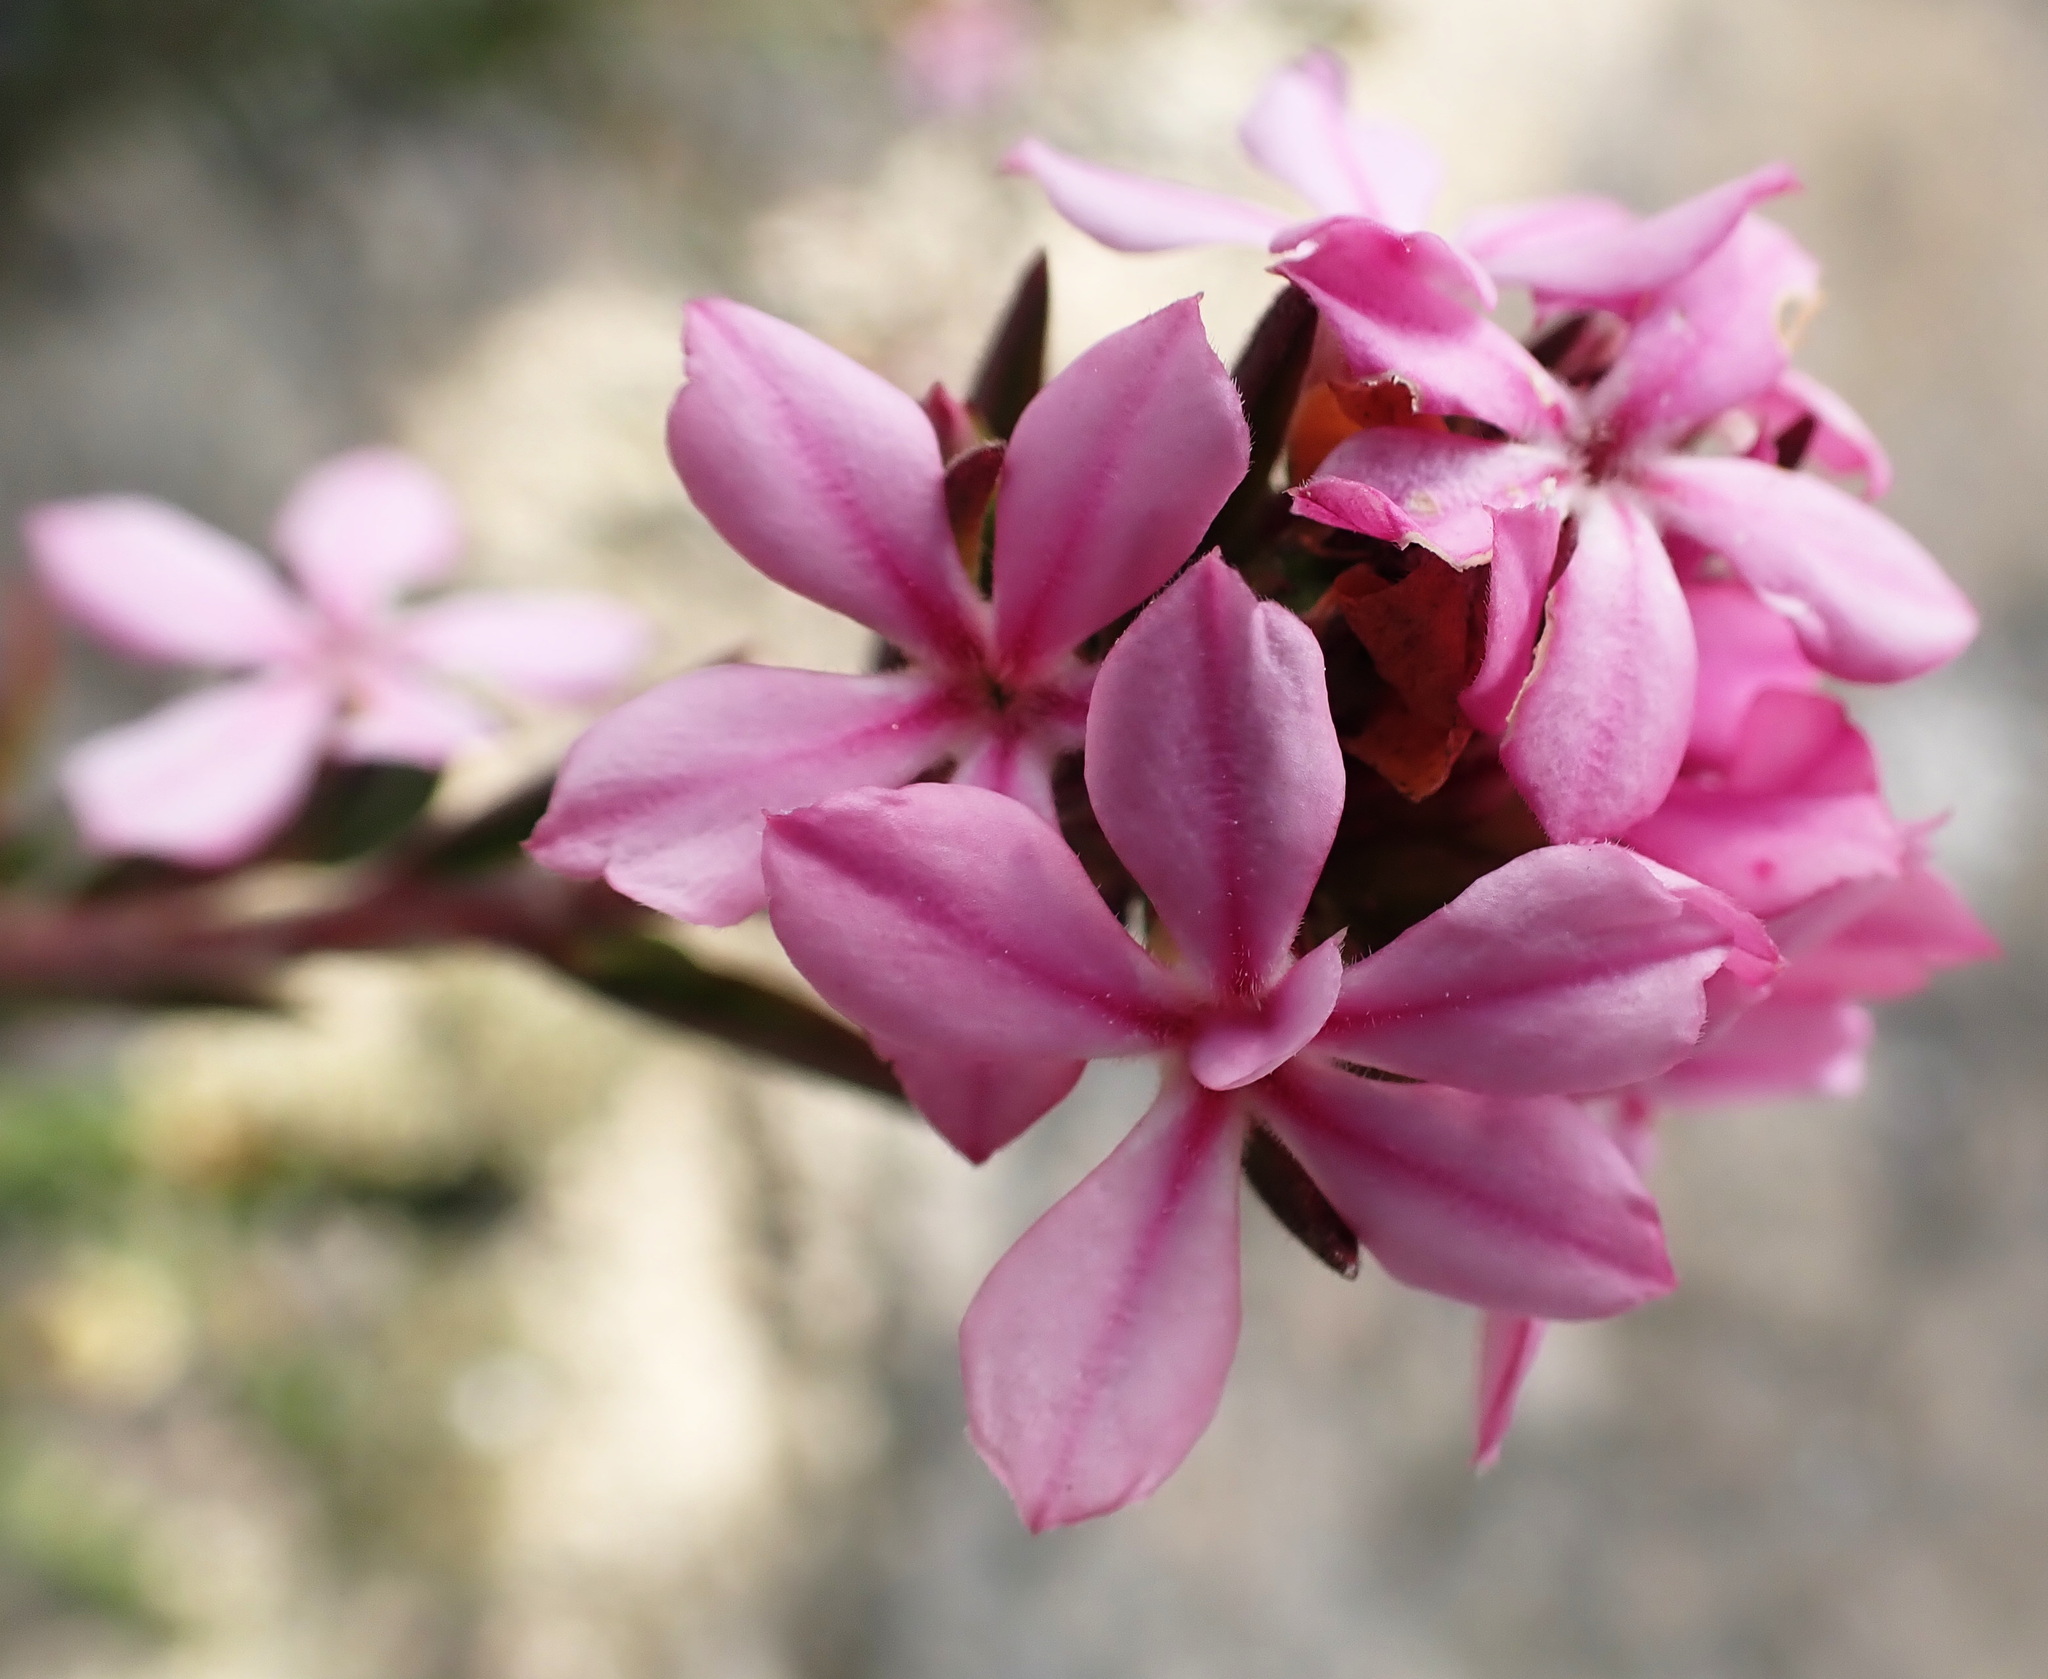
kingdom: Plantae
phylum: Tracheophyta
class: Magnoliopsida
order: Sapindales
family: Rutaceae
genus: Acmadenia
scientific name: Acmadenia obtusata
